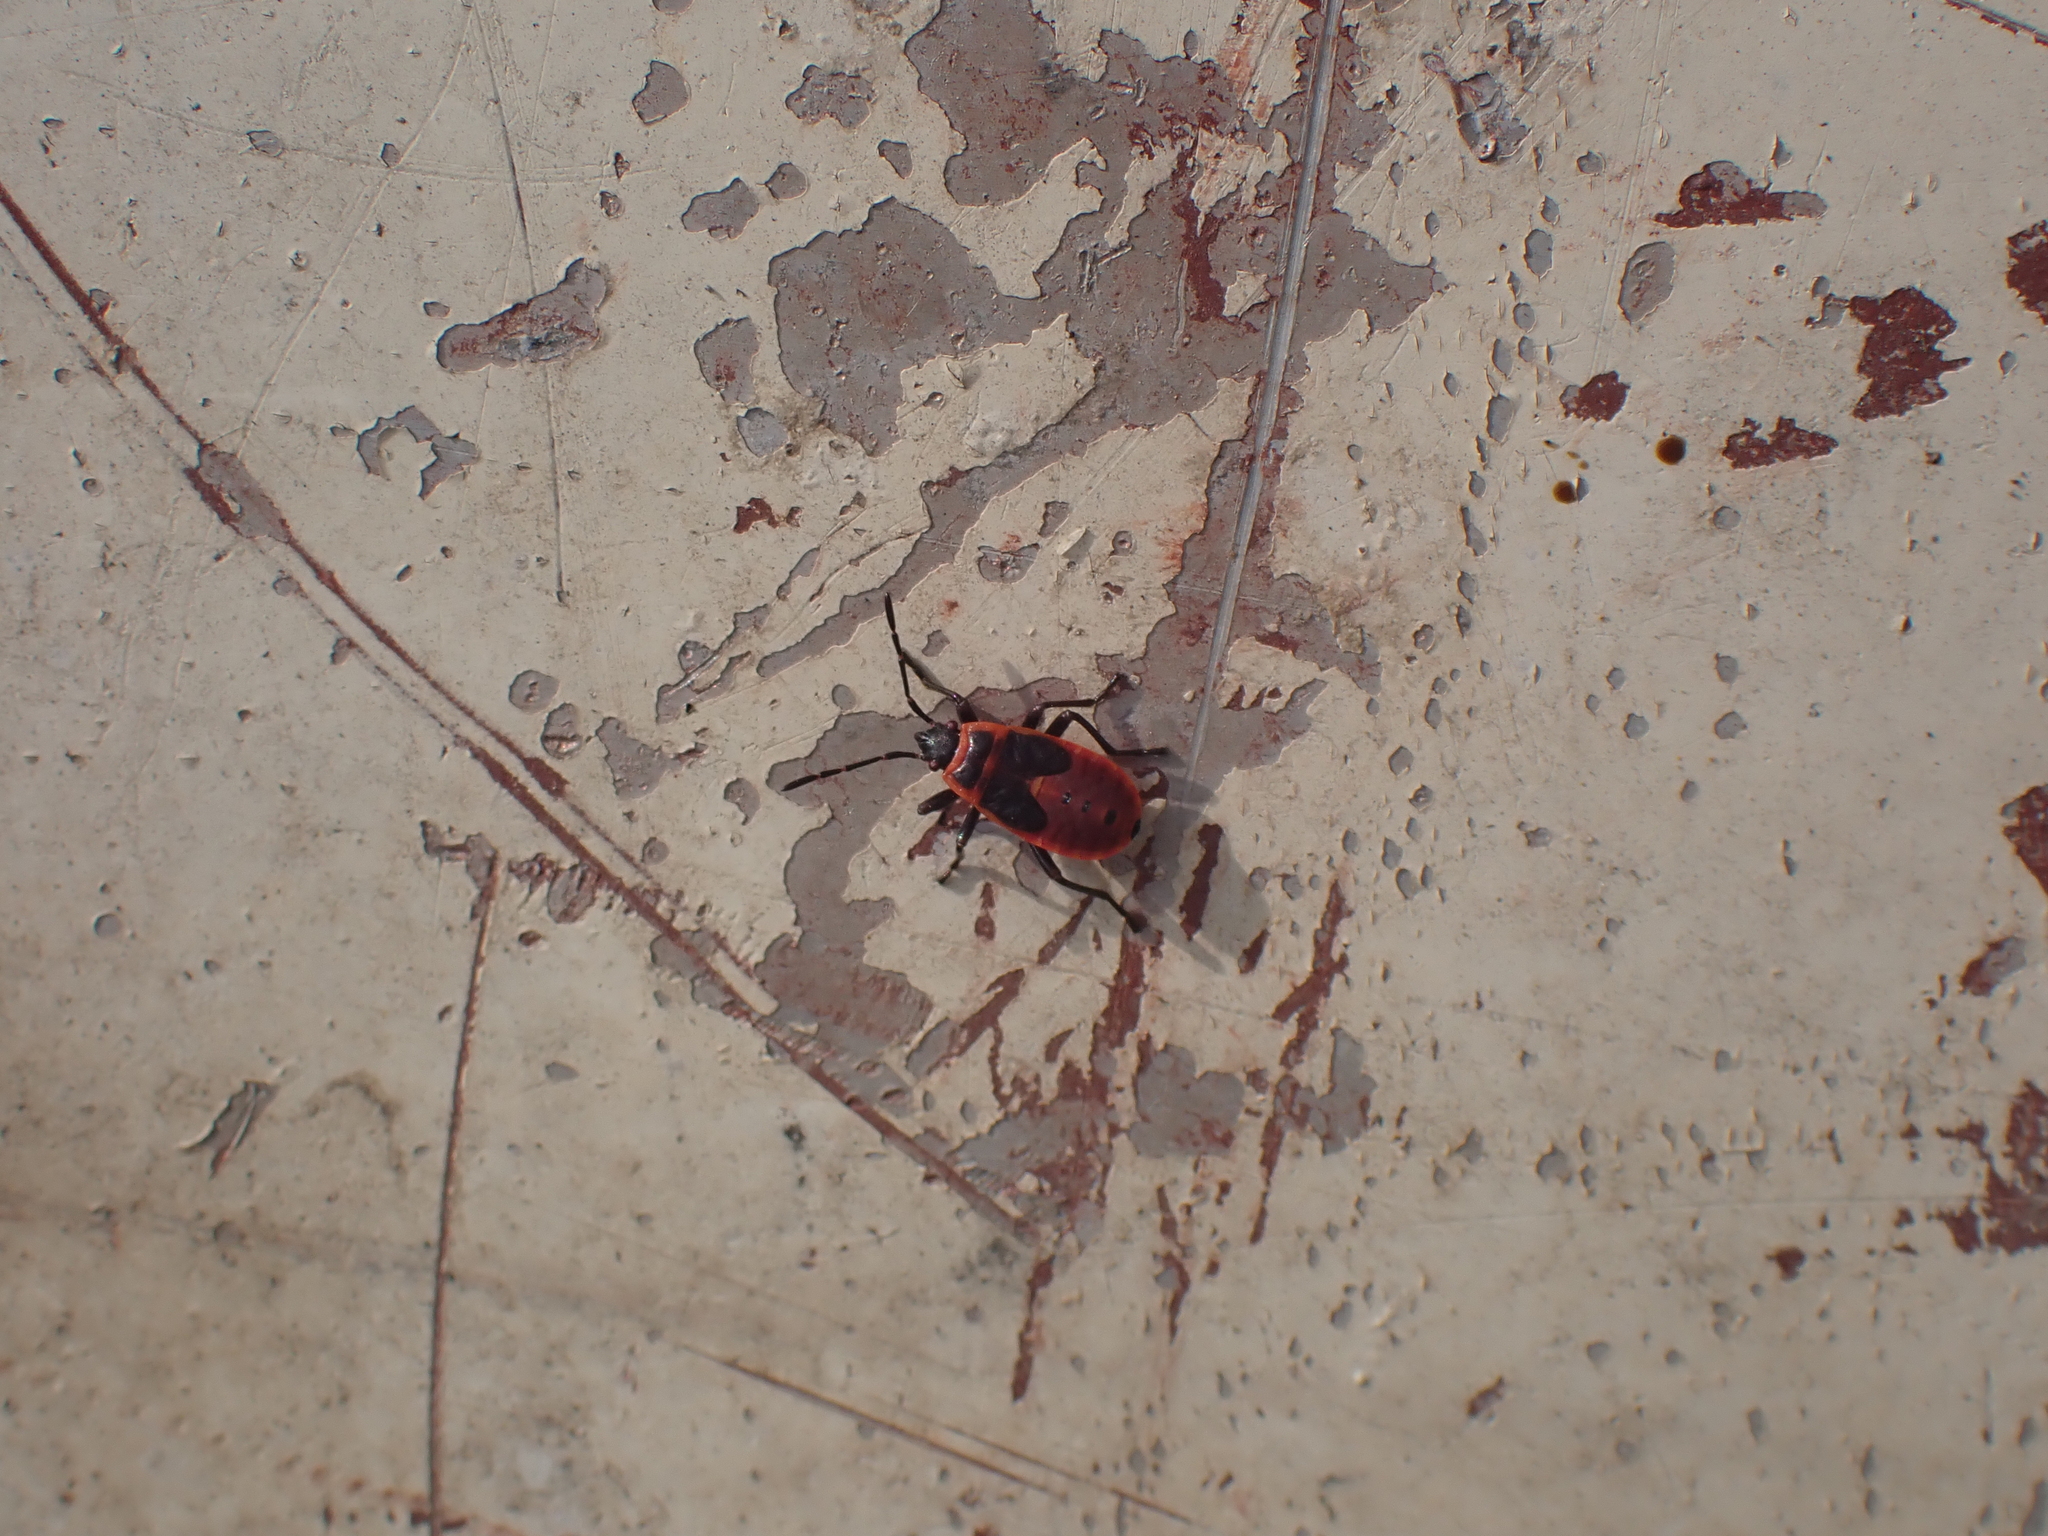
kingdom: Animalia
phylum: Arthropoda
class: Insecta
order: Hemiptera
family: Pyrrhocoridae
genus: Pyrrhocoris
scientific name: Pyrrhocoris apterus
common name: Firebug
